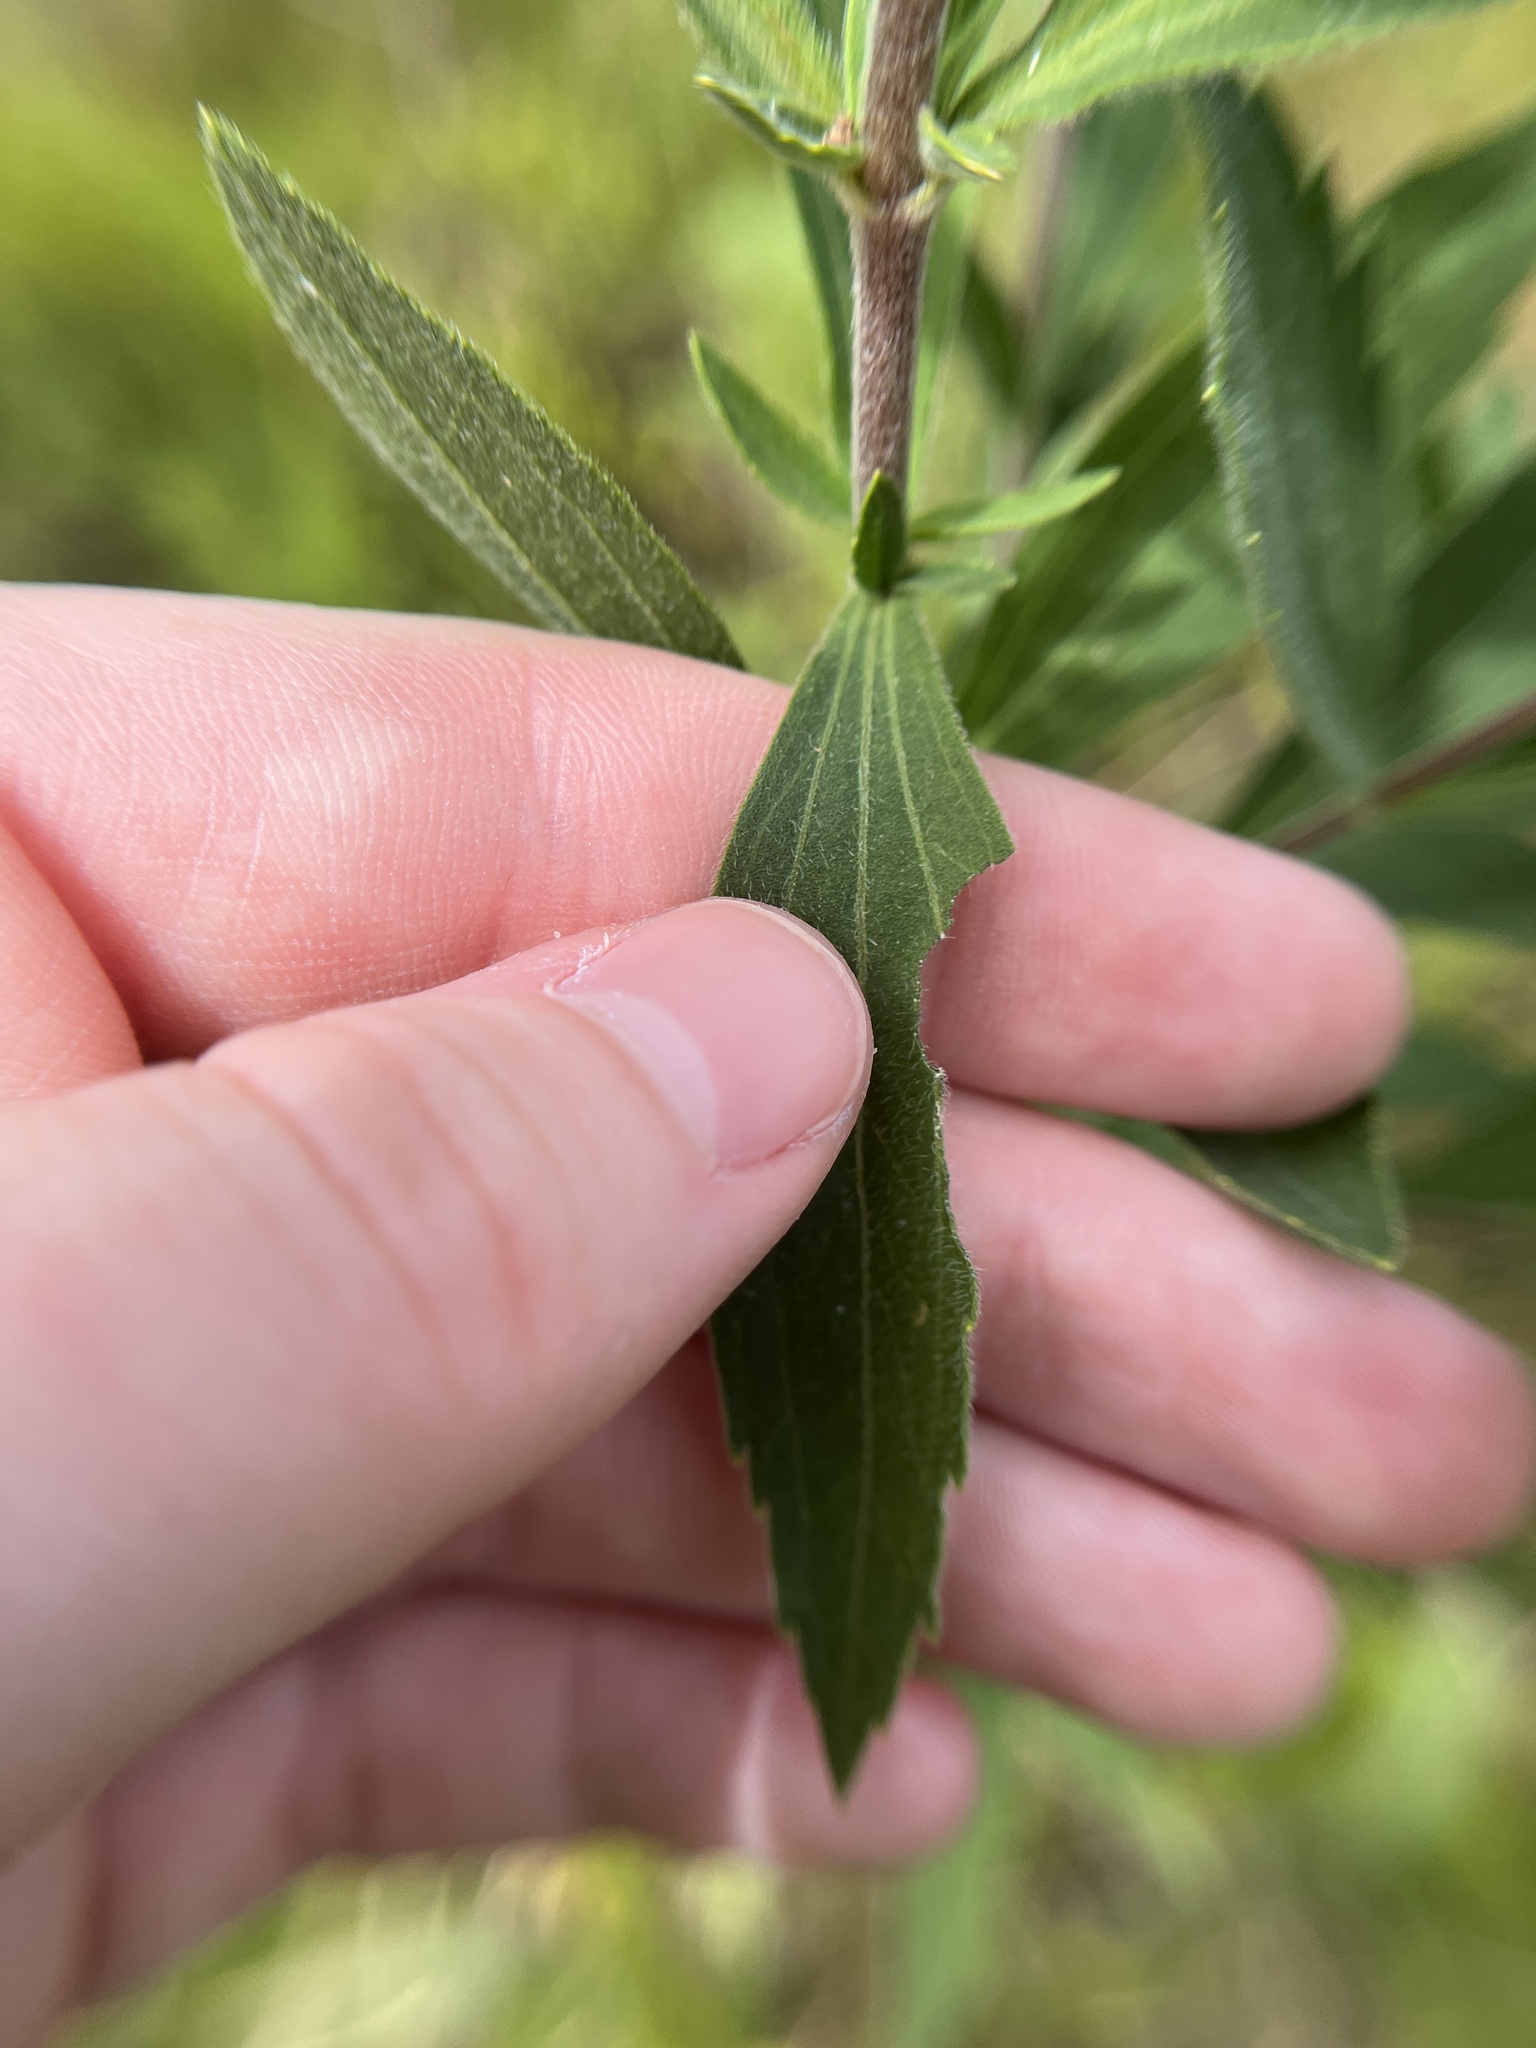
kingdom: Plantae
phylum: Tracheophyta
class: Magnoliopsida
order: Asterales
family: Asteraceae
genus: Eupatorium
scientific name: Eupatorium altissimum
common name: Tall thoroughwort
